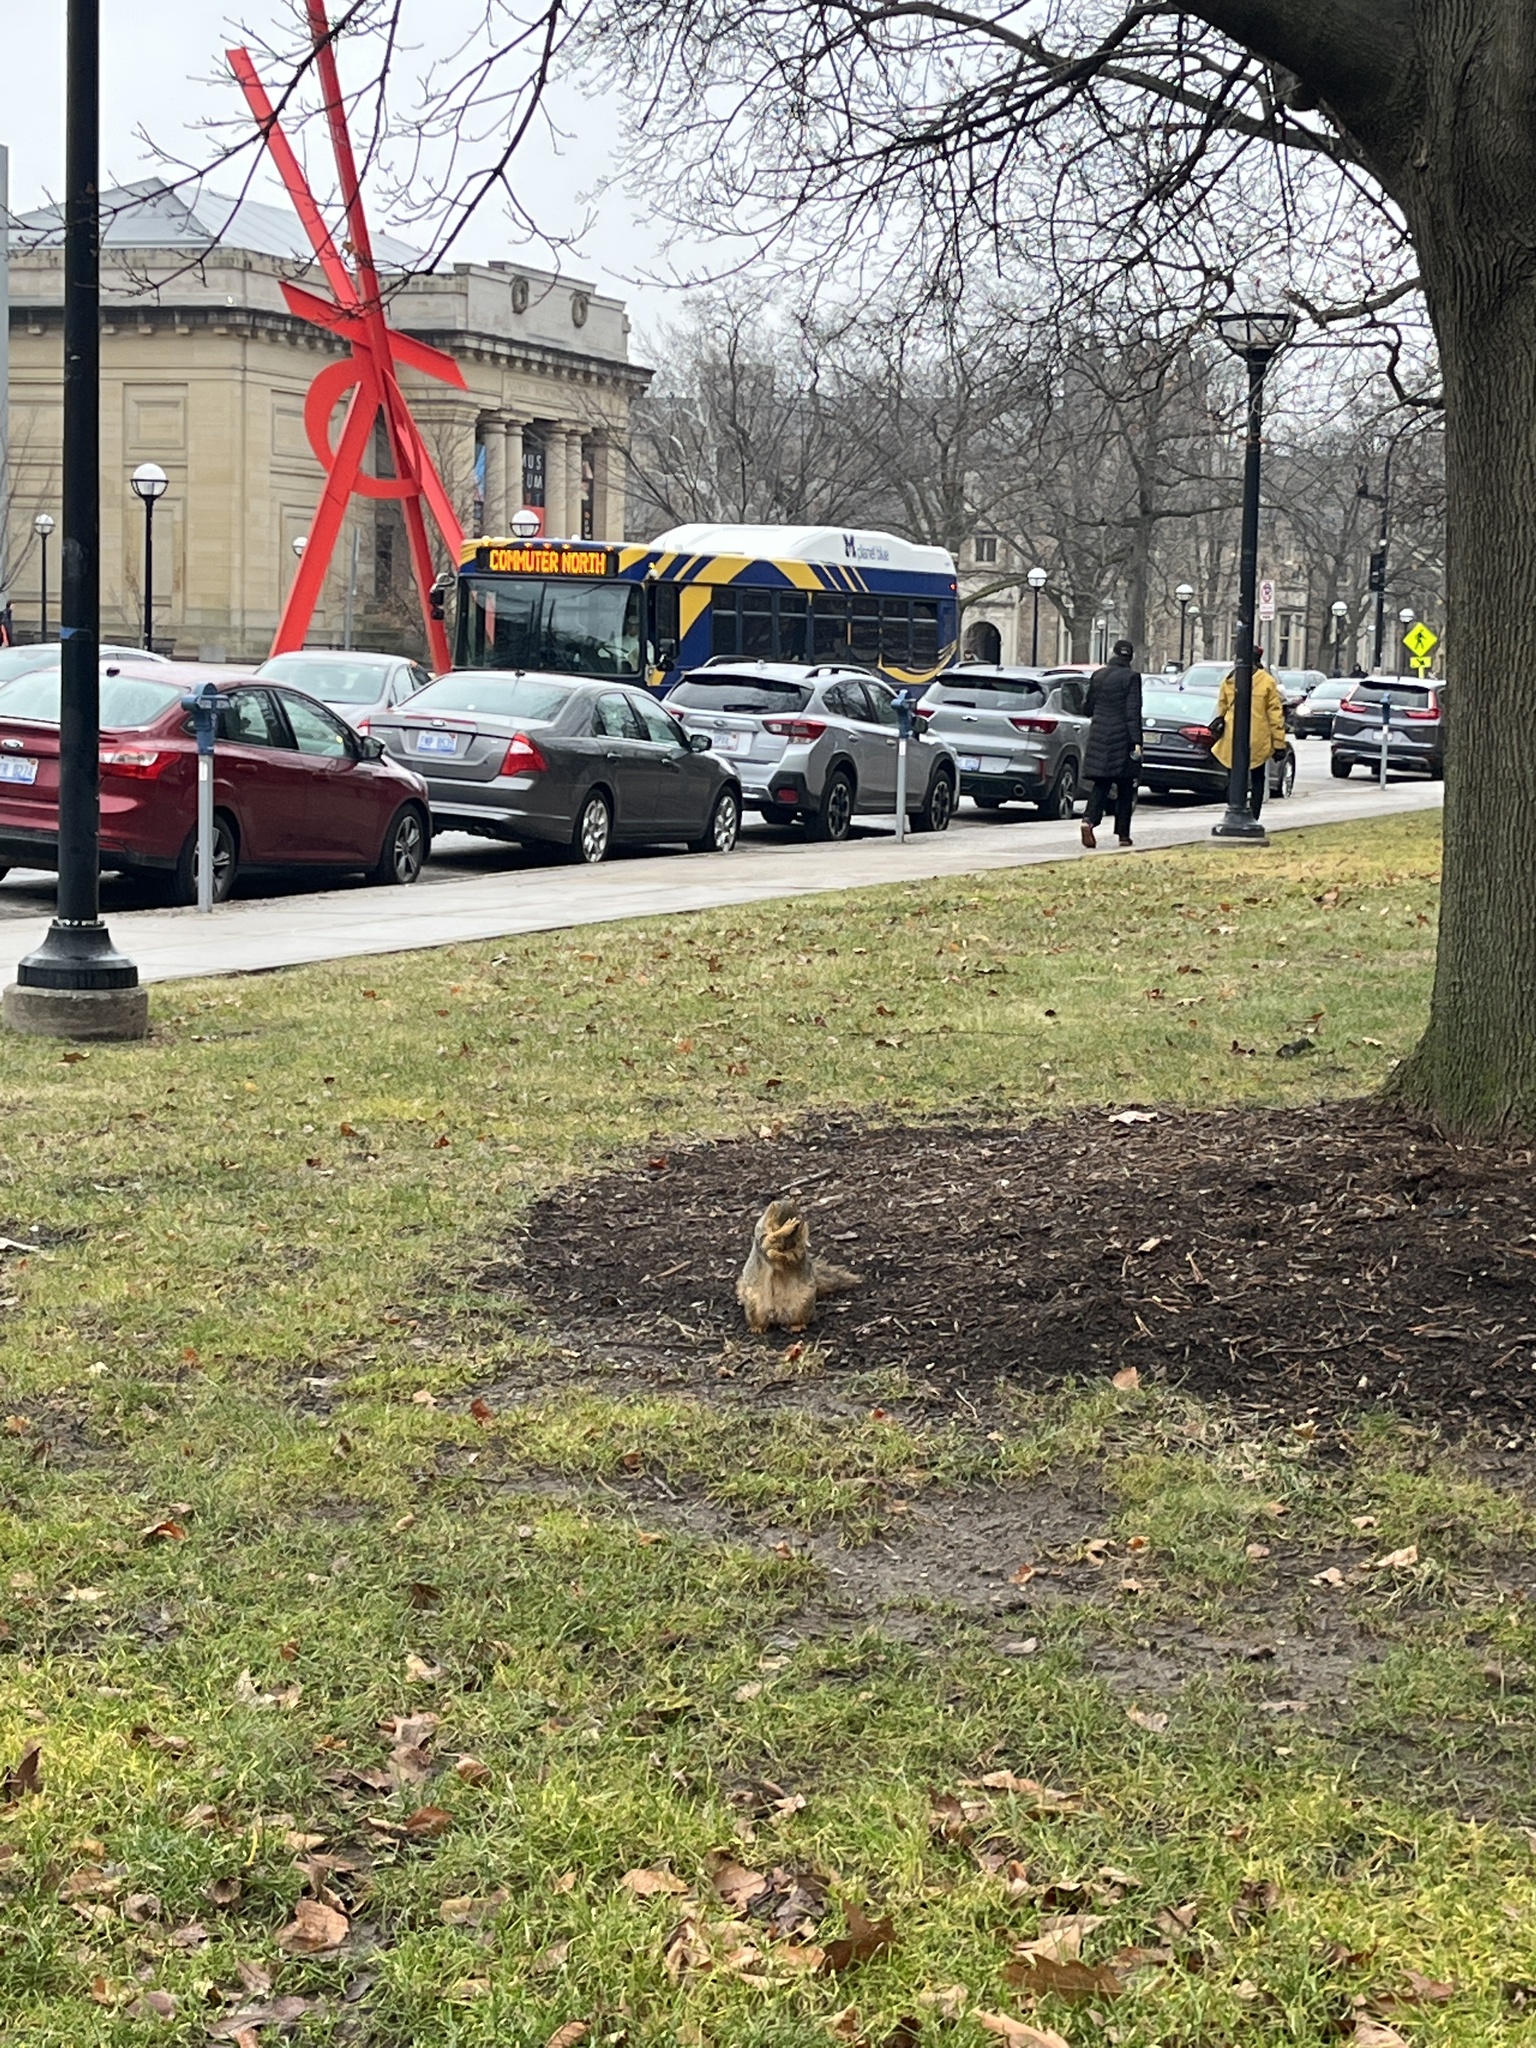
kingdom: Animalia
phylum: Chordata
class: Mammalia
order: Rodentia
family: Sciuridae
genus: Sciurus
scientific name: Sciurus niger
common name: Fox squirrel
